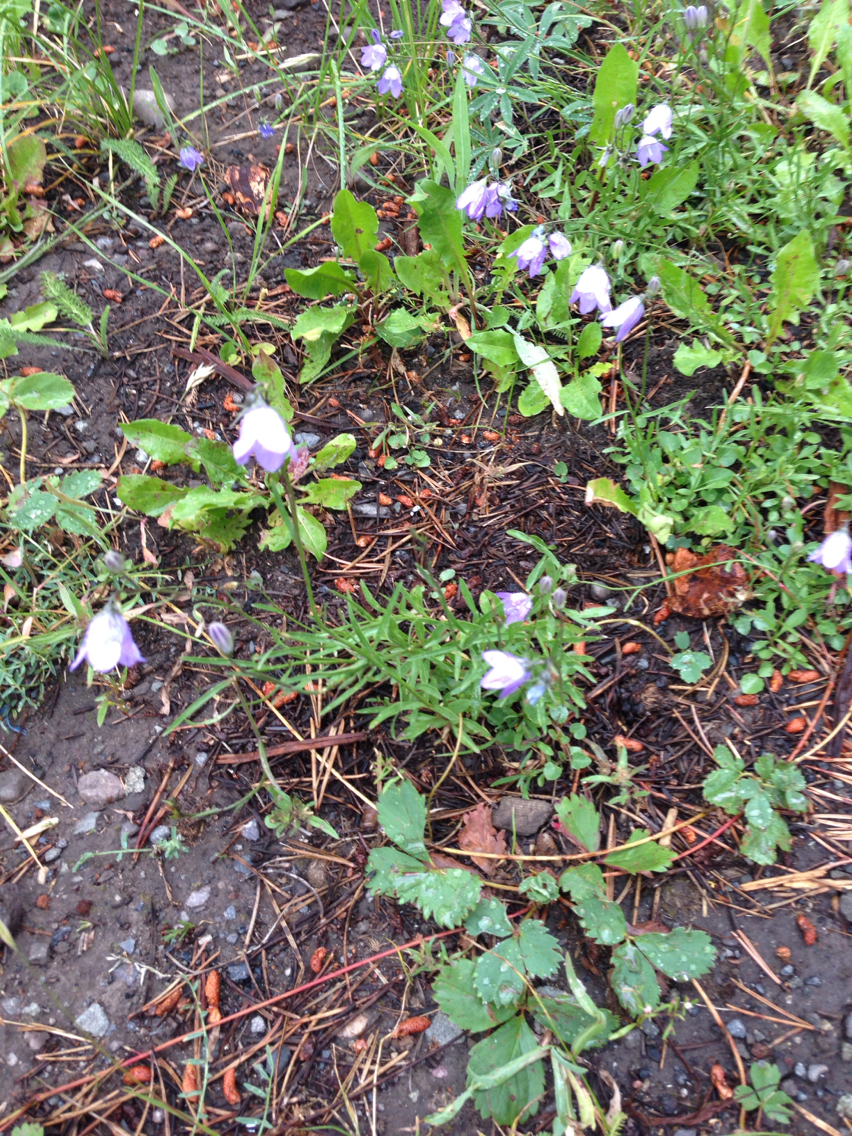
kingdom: Plantae
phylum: Tracheophyta
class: Magnoliopsida
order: Asterales
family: Campanulaceae
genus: Campanula
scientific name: Campanula petiolata
